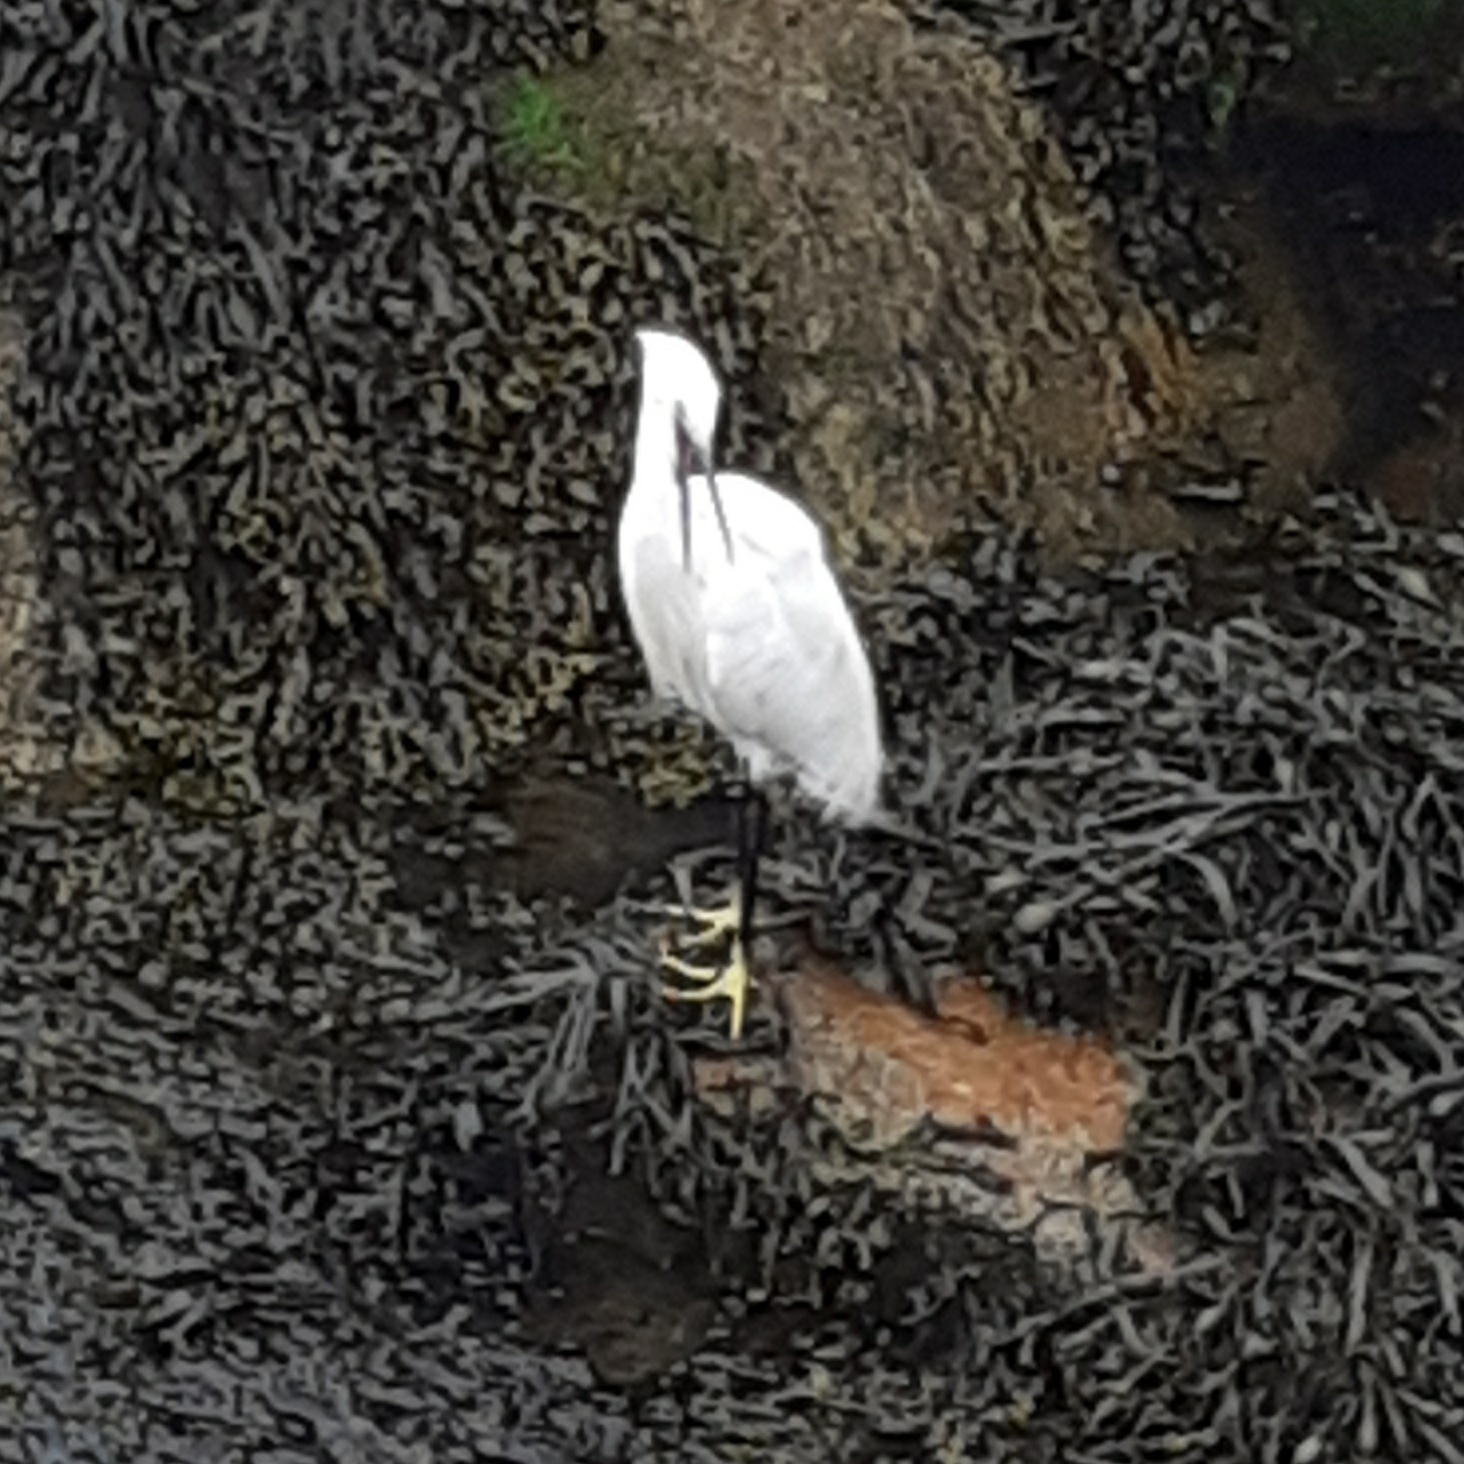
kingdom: Animalia
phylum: Chordata
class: Aves
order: Pelecaniformes
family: Ardeidae
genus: Egretta
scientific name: Egretta garzetta
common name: Little egret
